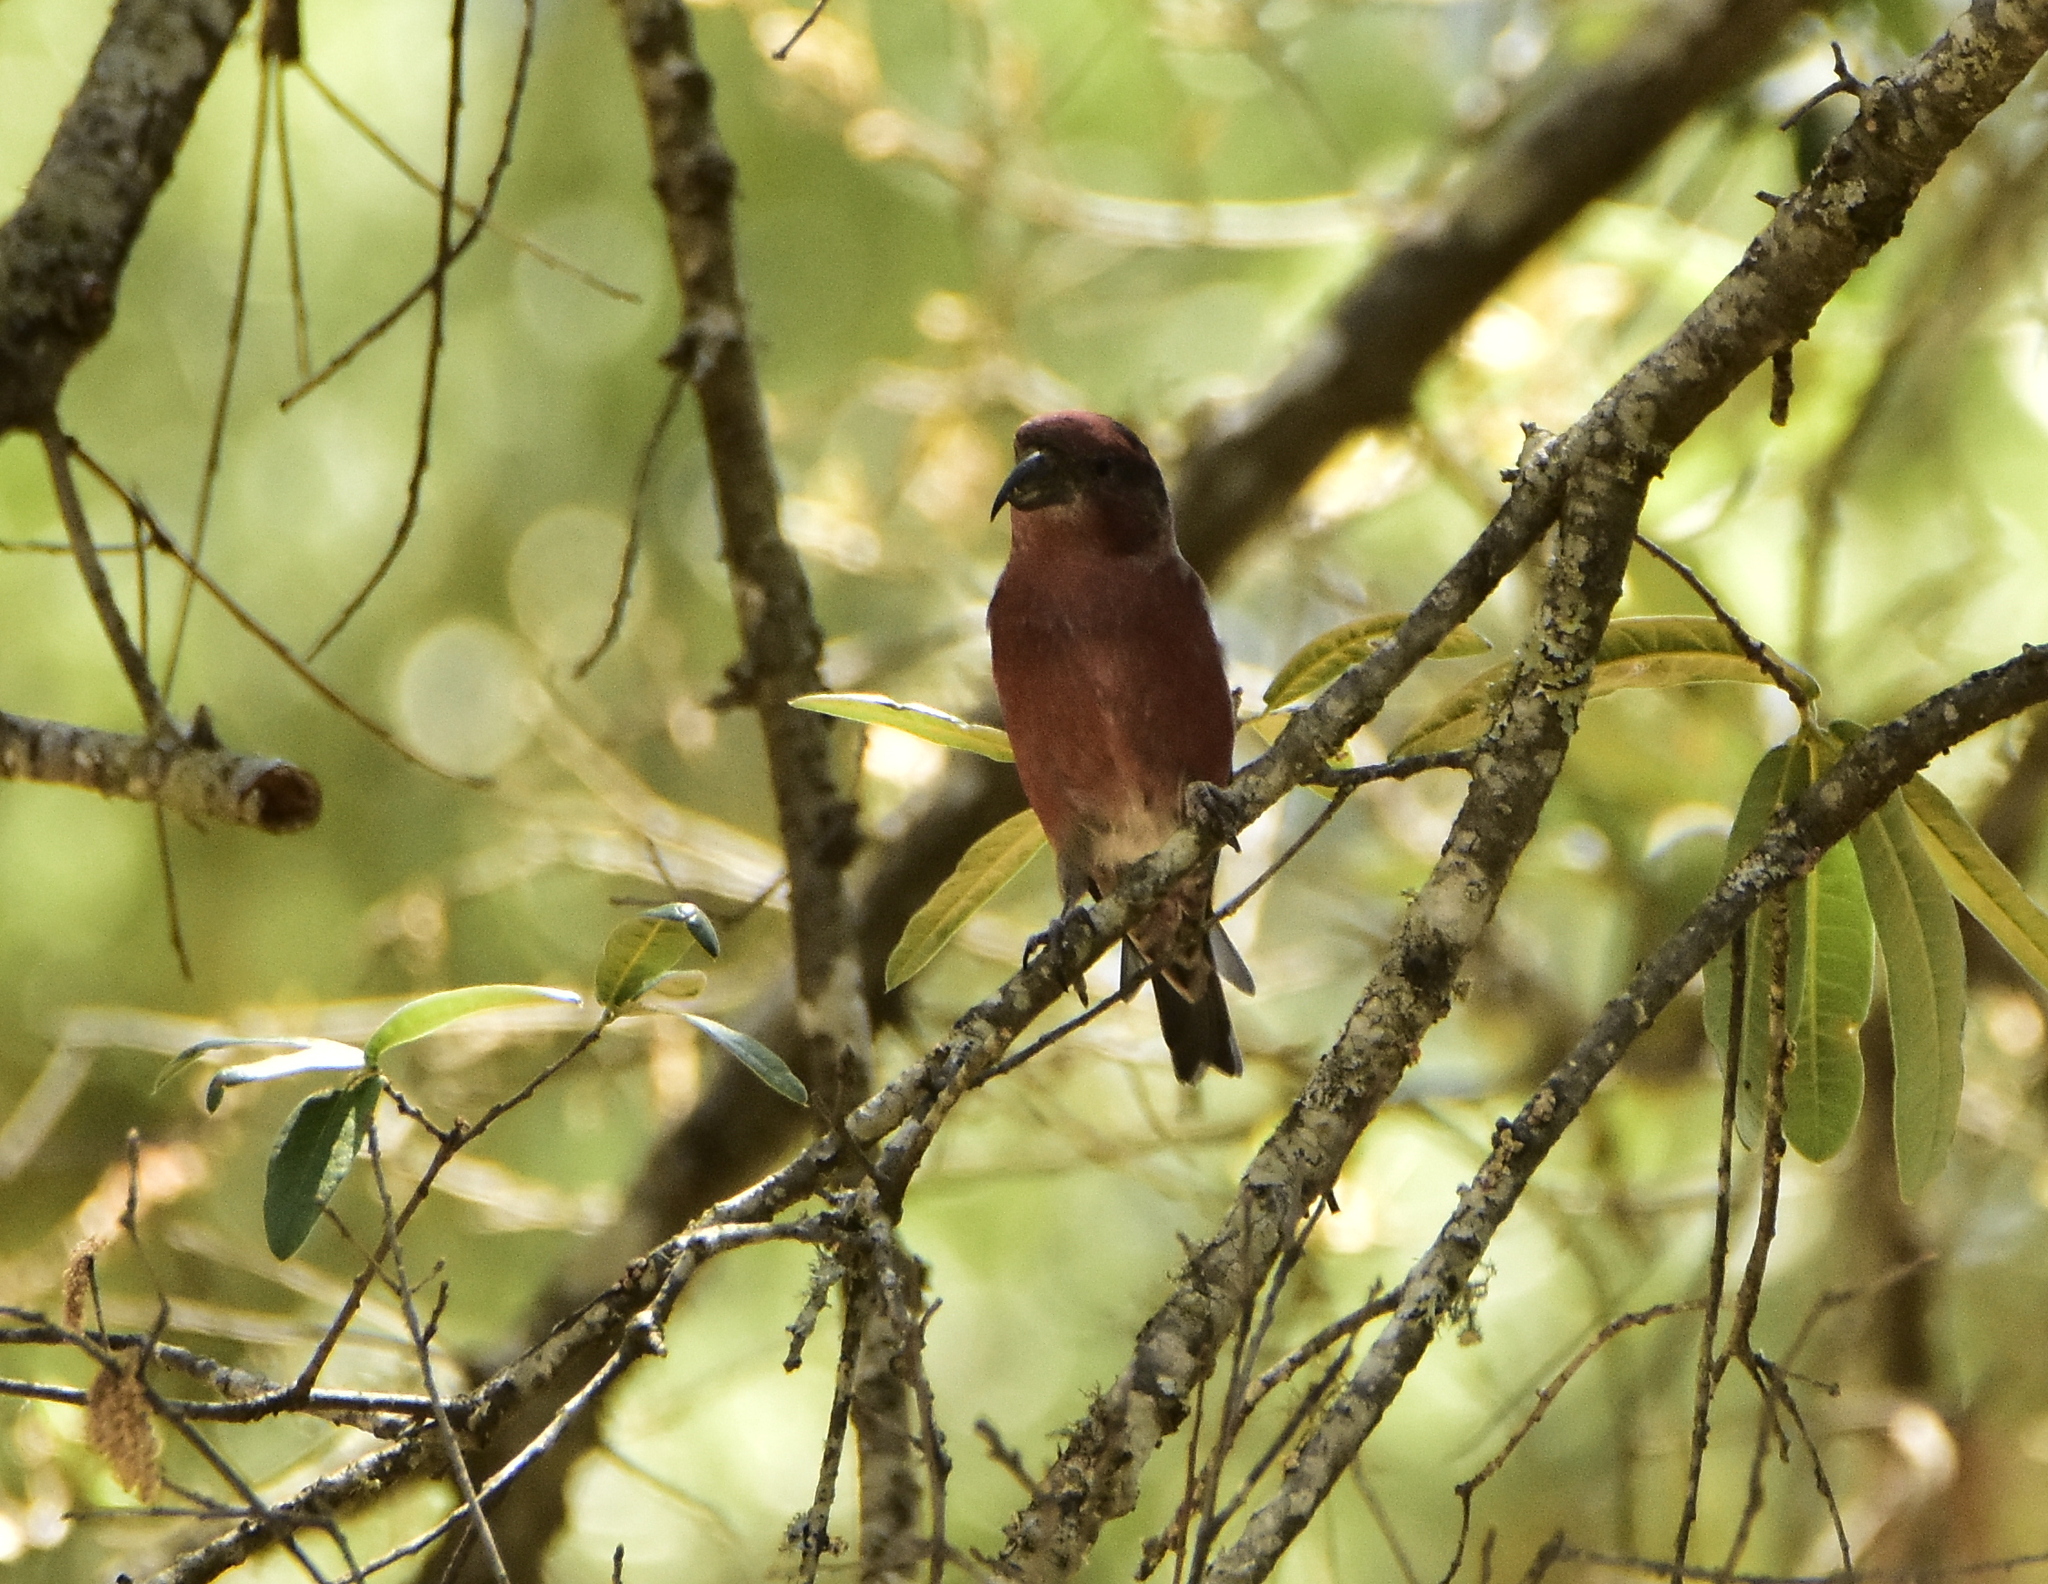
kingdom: Animalia
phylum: Chordata
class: Aves
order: Passeriformes
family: Fringillidae
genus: Loxia
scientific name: Loxia curvirostra
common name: Red crossbill
